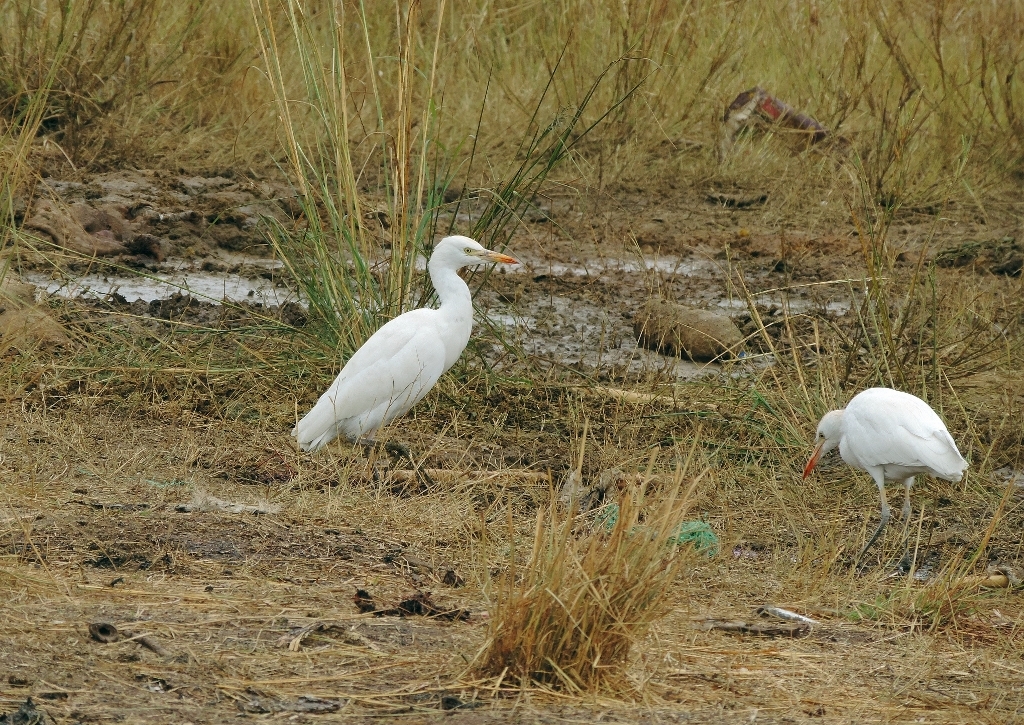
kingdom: Animalia
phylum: Chordata
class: Aves
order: Pelecaniformes
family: Ardeidae
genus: Bubulcus
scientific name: Bubulcus ibis
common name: Cattle egret
